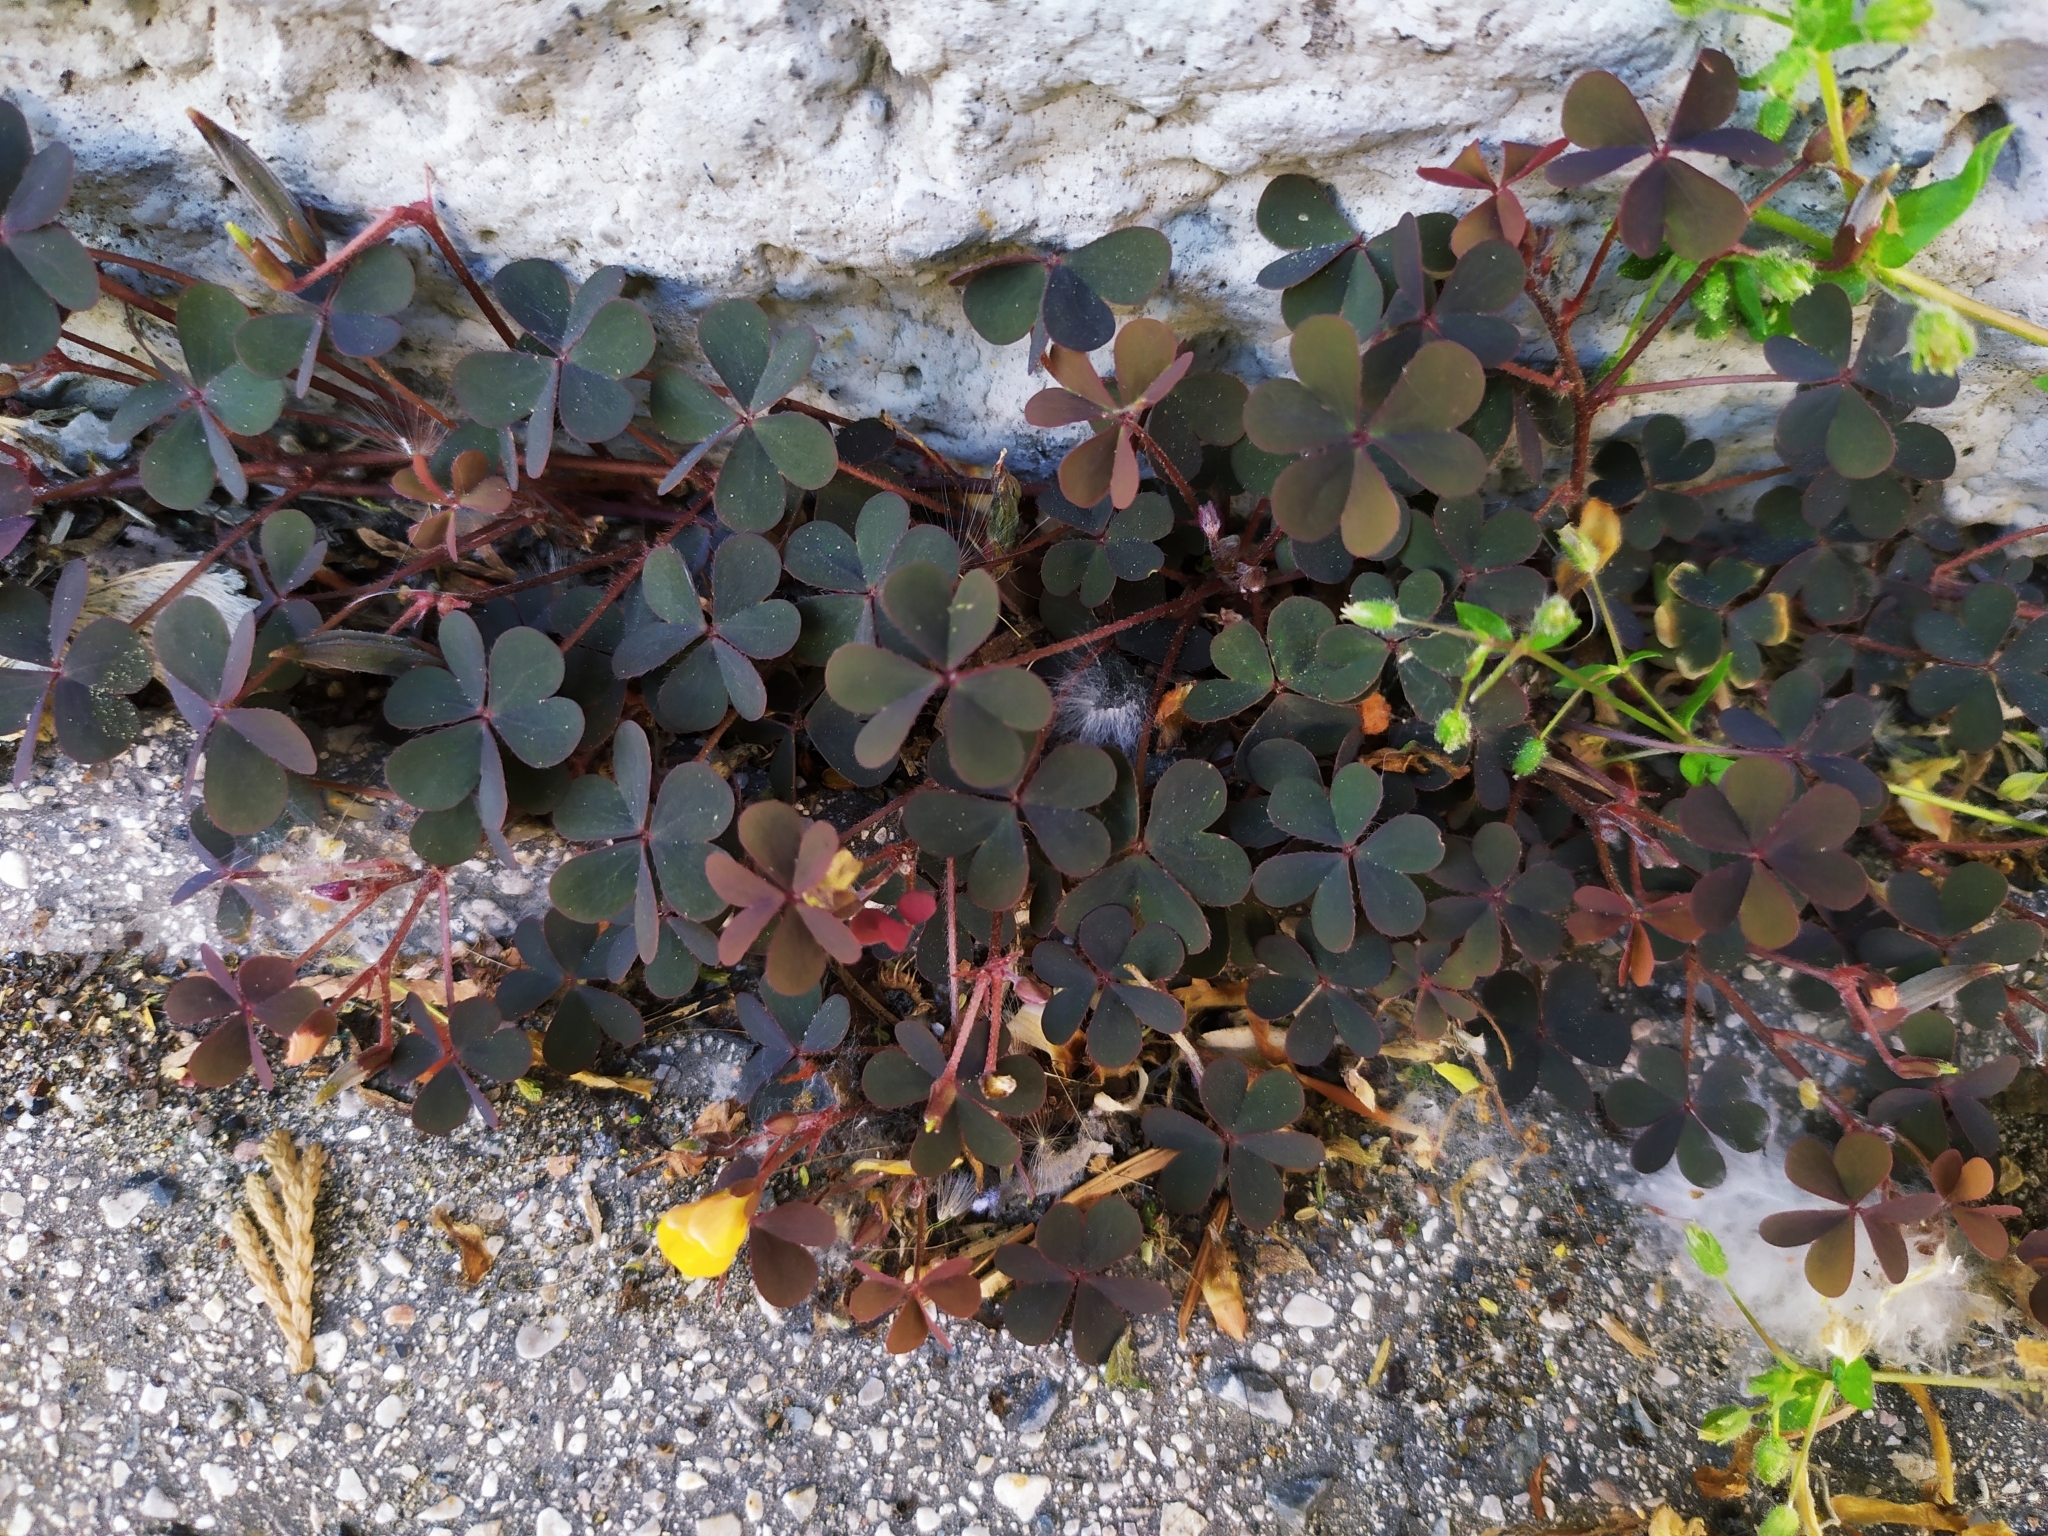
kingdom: Plantae
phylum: Tracheophyta
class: Magnoliopsida
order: Oxalidales
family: Oxalidaceae
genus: Oxalis
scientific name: Oxalis corniculata
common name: Procumbent yellow-sorrel
